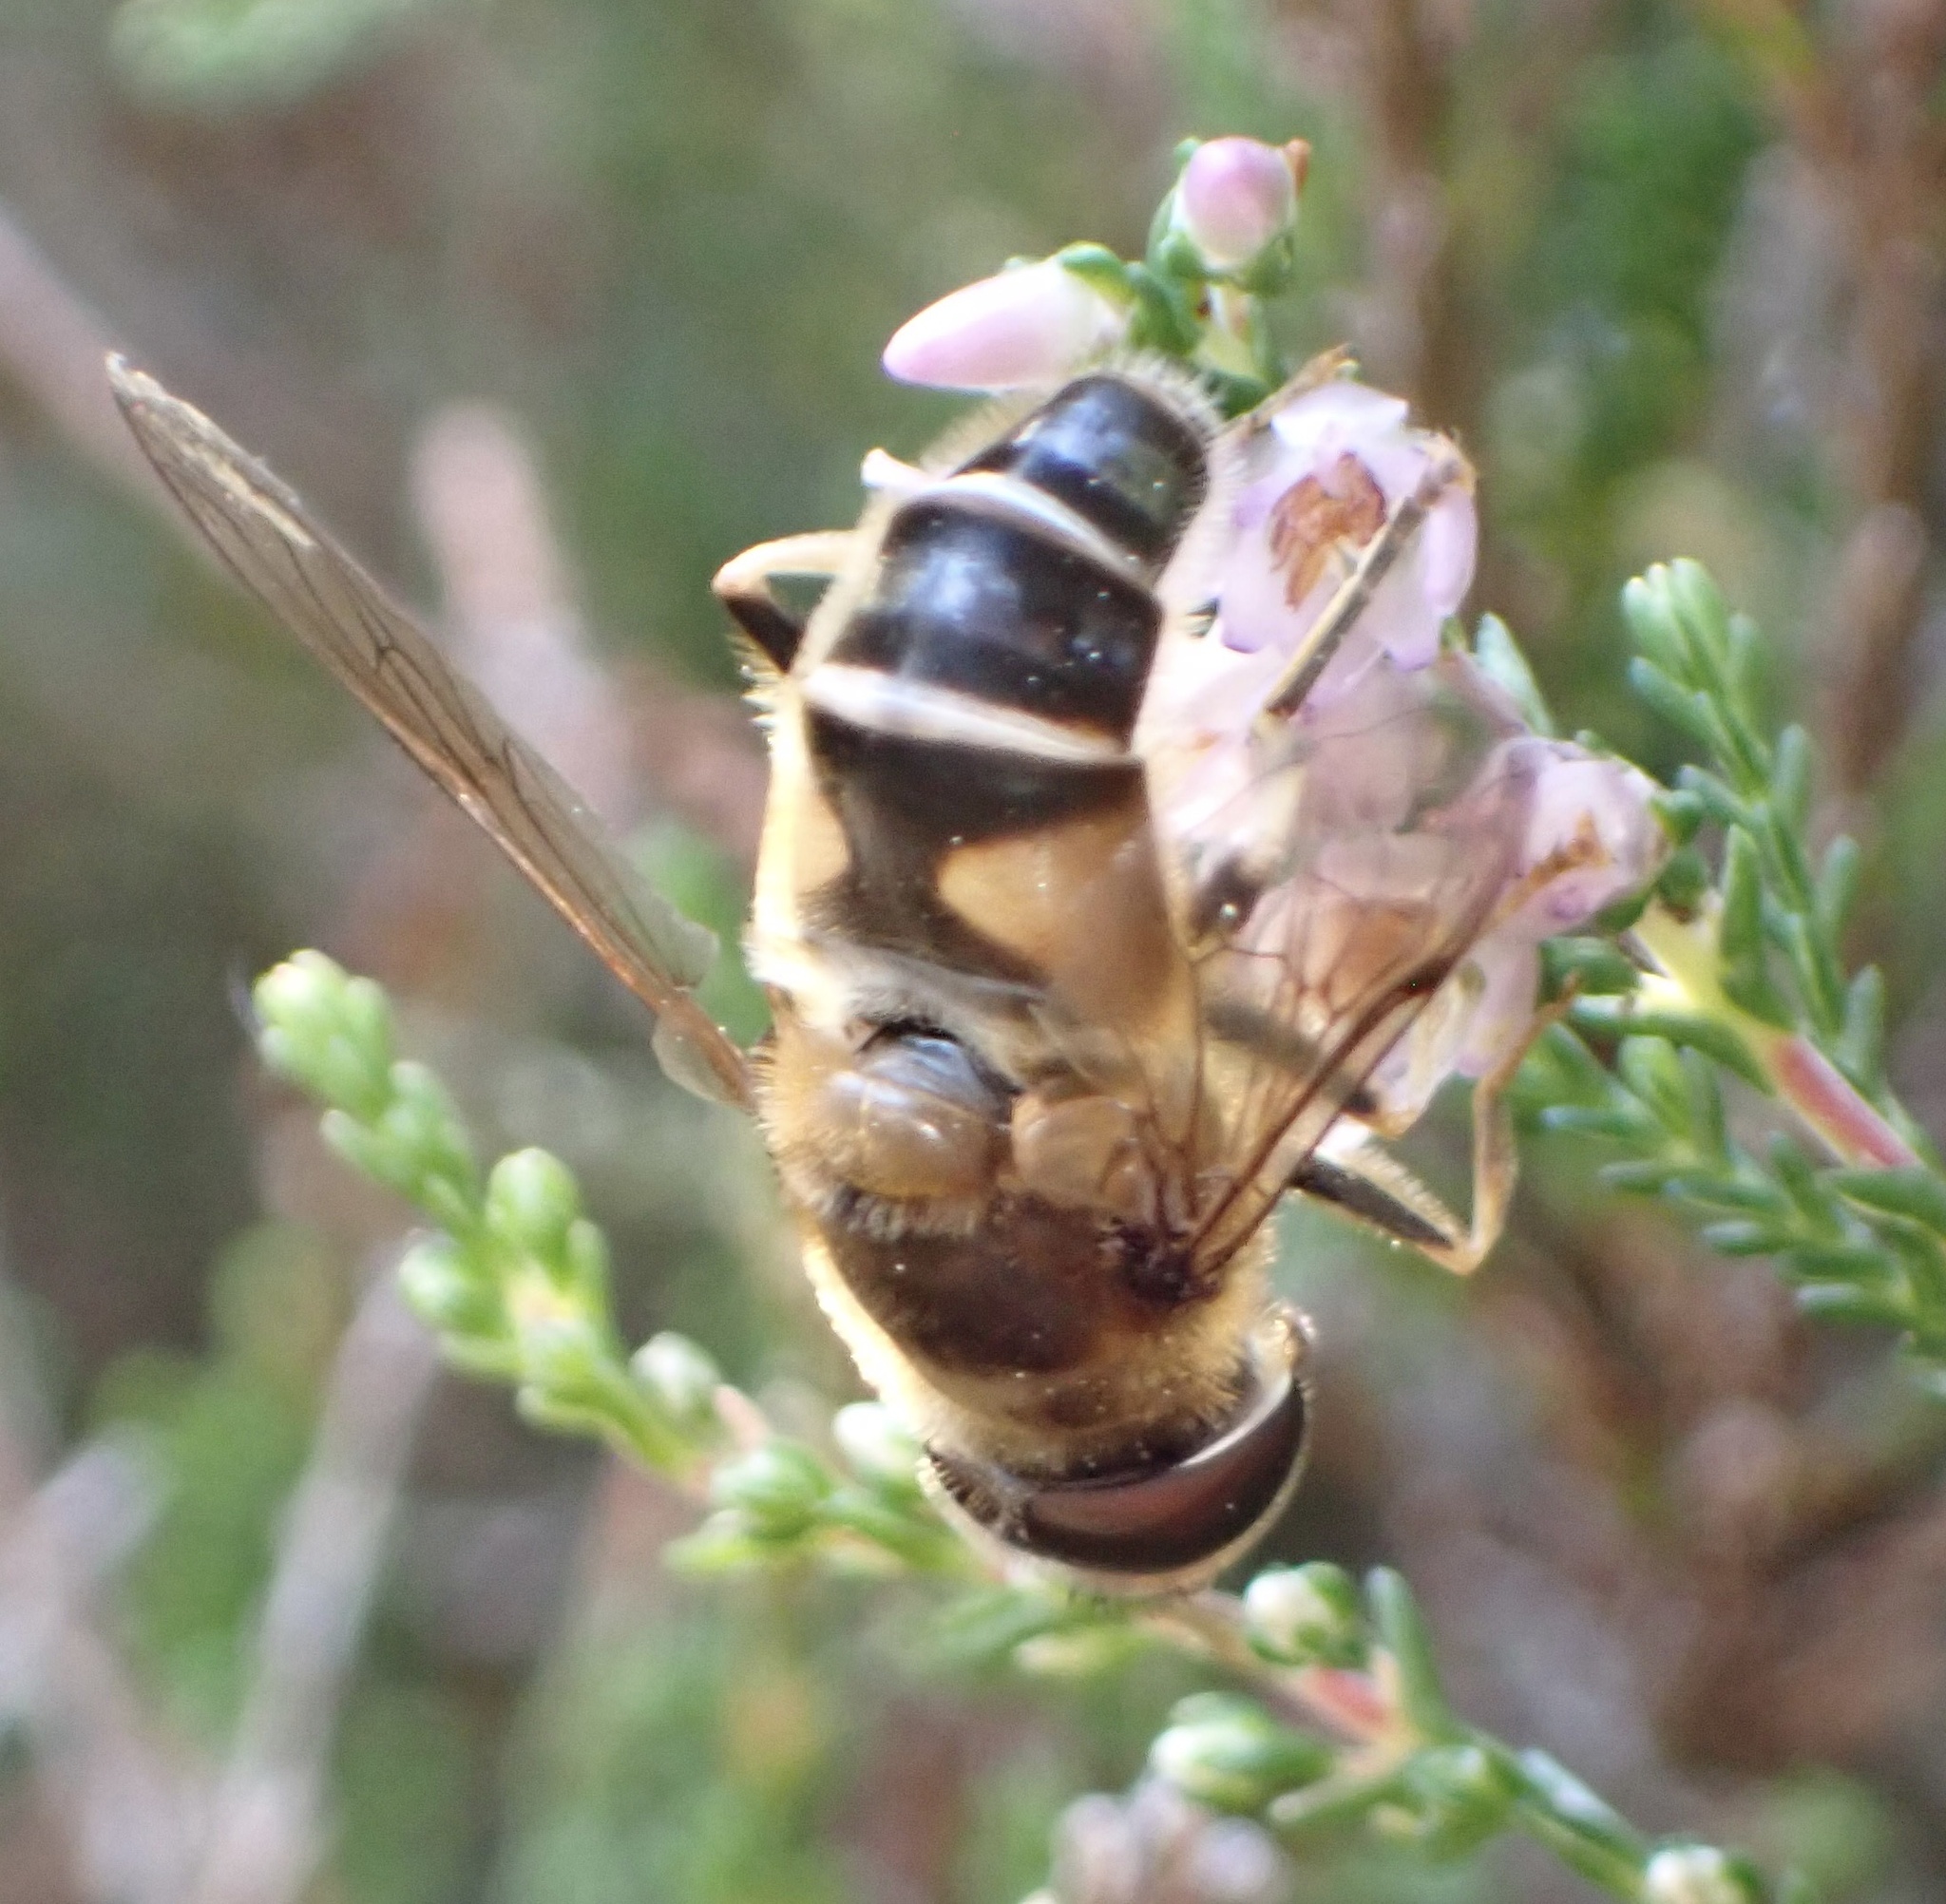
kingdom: Animalia
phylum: Arthropoda
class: Insecta
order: Diptera
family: Syrphidae
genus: Eristalis
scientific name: Eristalis pertinax
